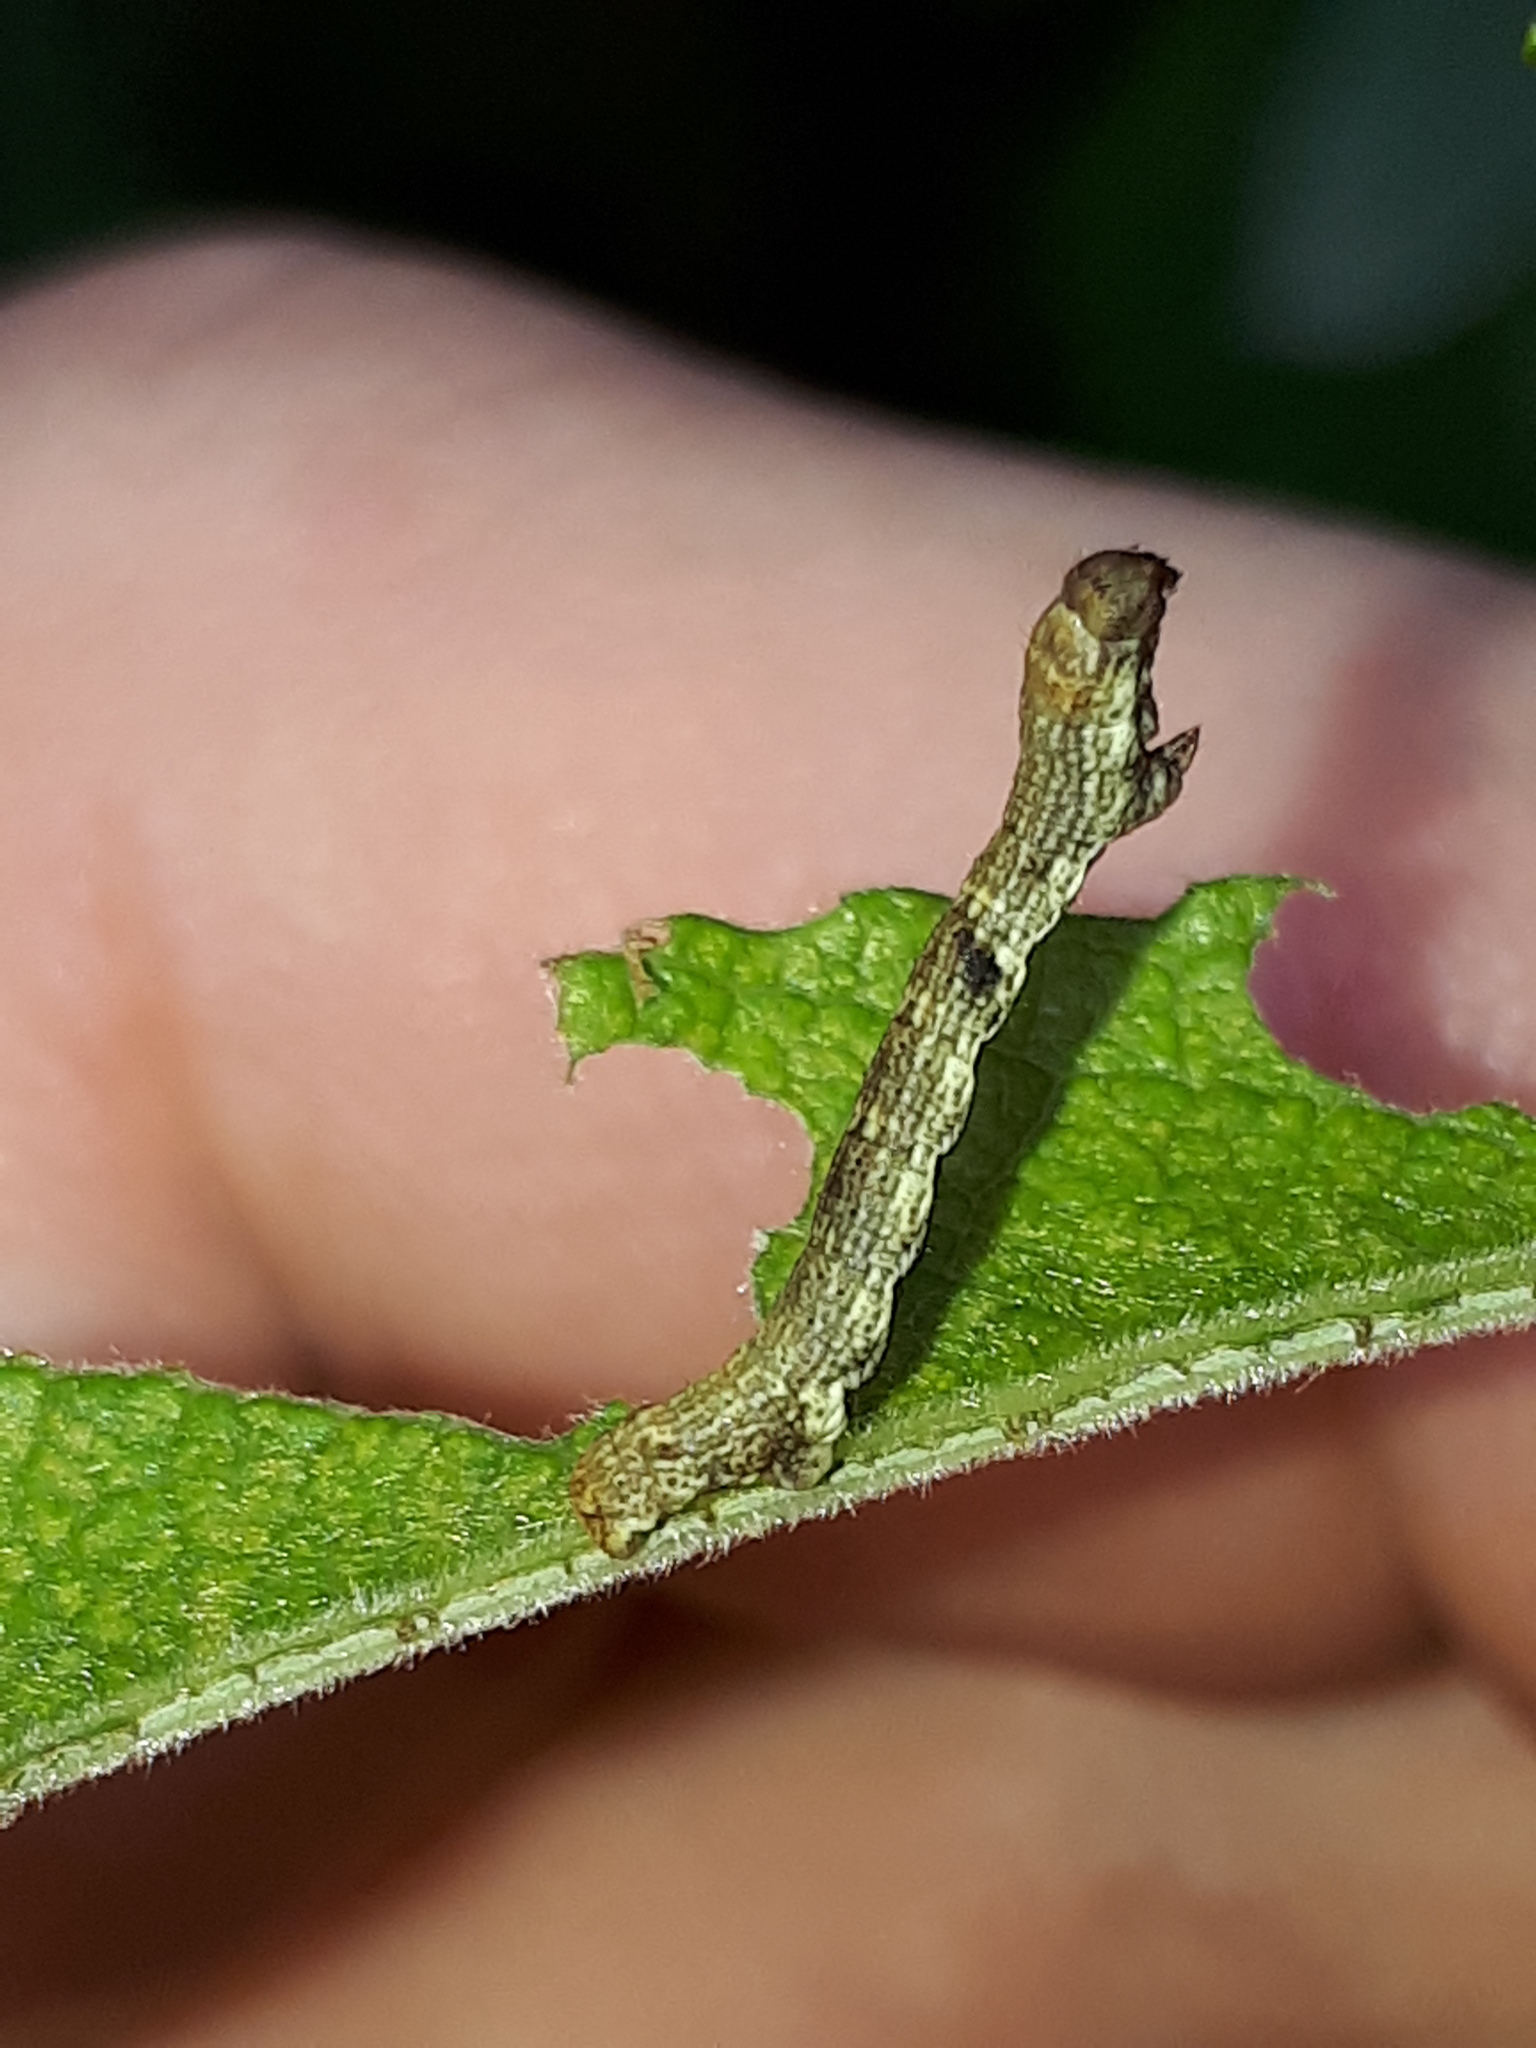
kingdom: Animalia
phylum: Arthropoda
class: Insecta
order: Lepidoptera
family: Geometridae
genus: Ectropis
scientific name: Ectropis crepuscularia
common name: Engrailed
